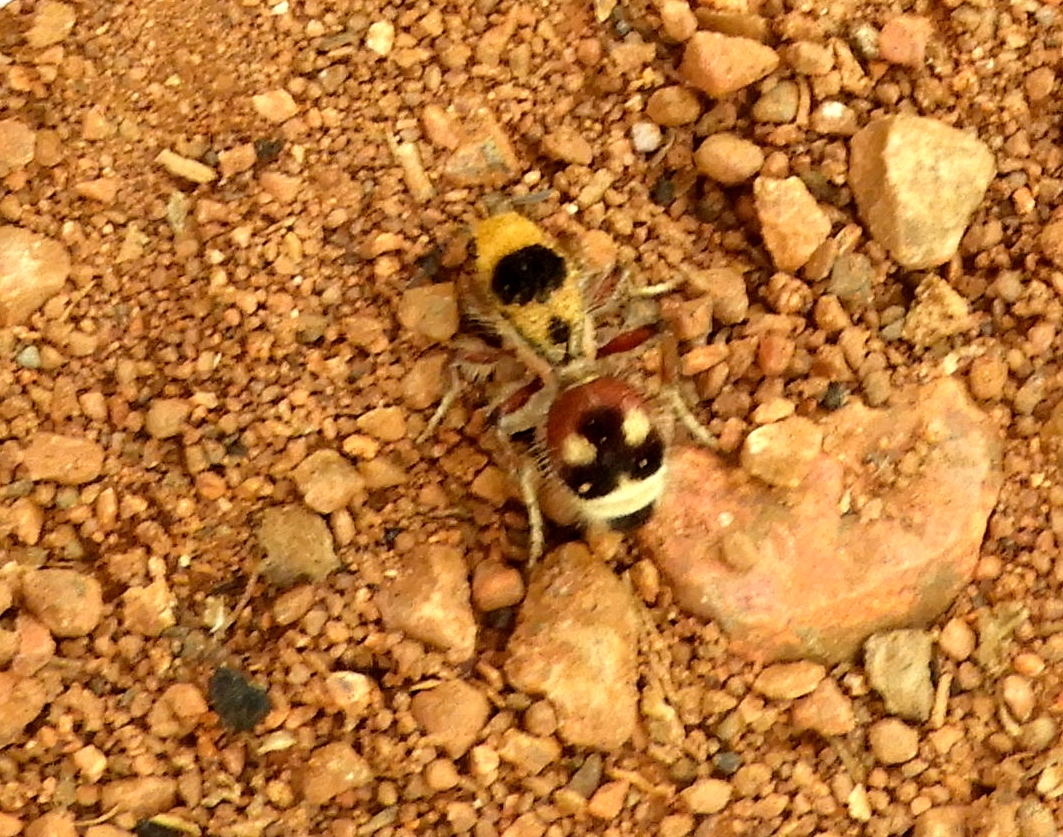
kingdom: Animalia
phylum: Arthropoda
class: Insecta
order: Hymenoptera
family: Mutillidae
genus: Dasymutilla
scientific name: Dasymutilla
